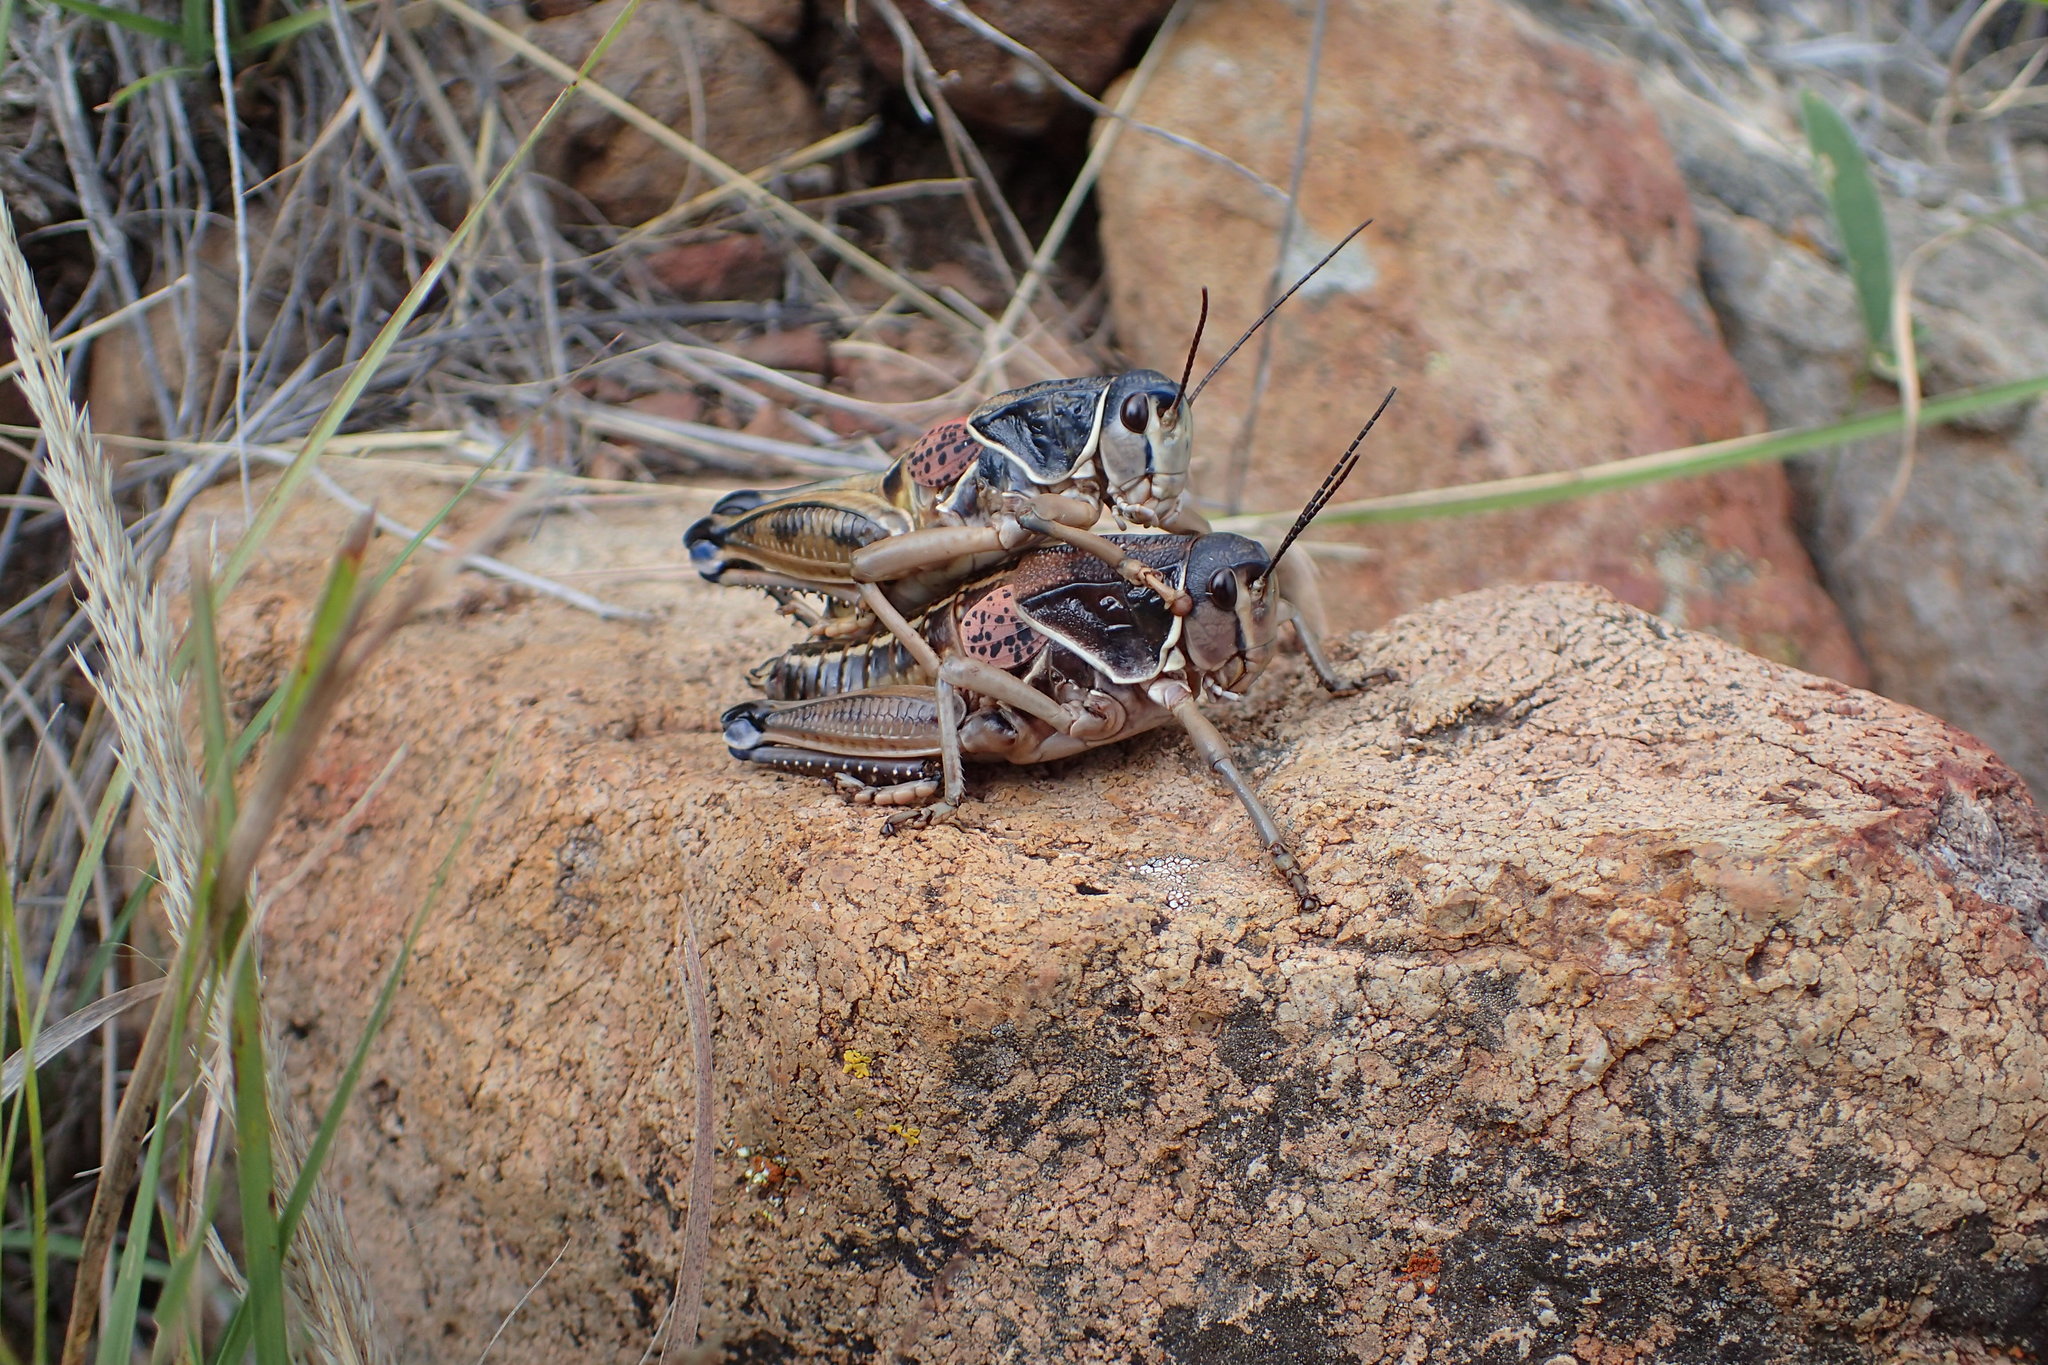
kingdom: Animalia
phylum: Arthropoda
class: Insecta
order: Orthoptera
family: Romaleidae
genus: Brachystola
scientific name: Brachystola magna
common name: Plains lubber grasshopper
